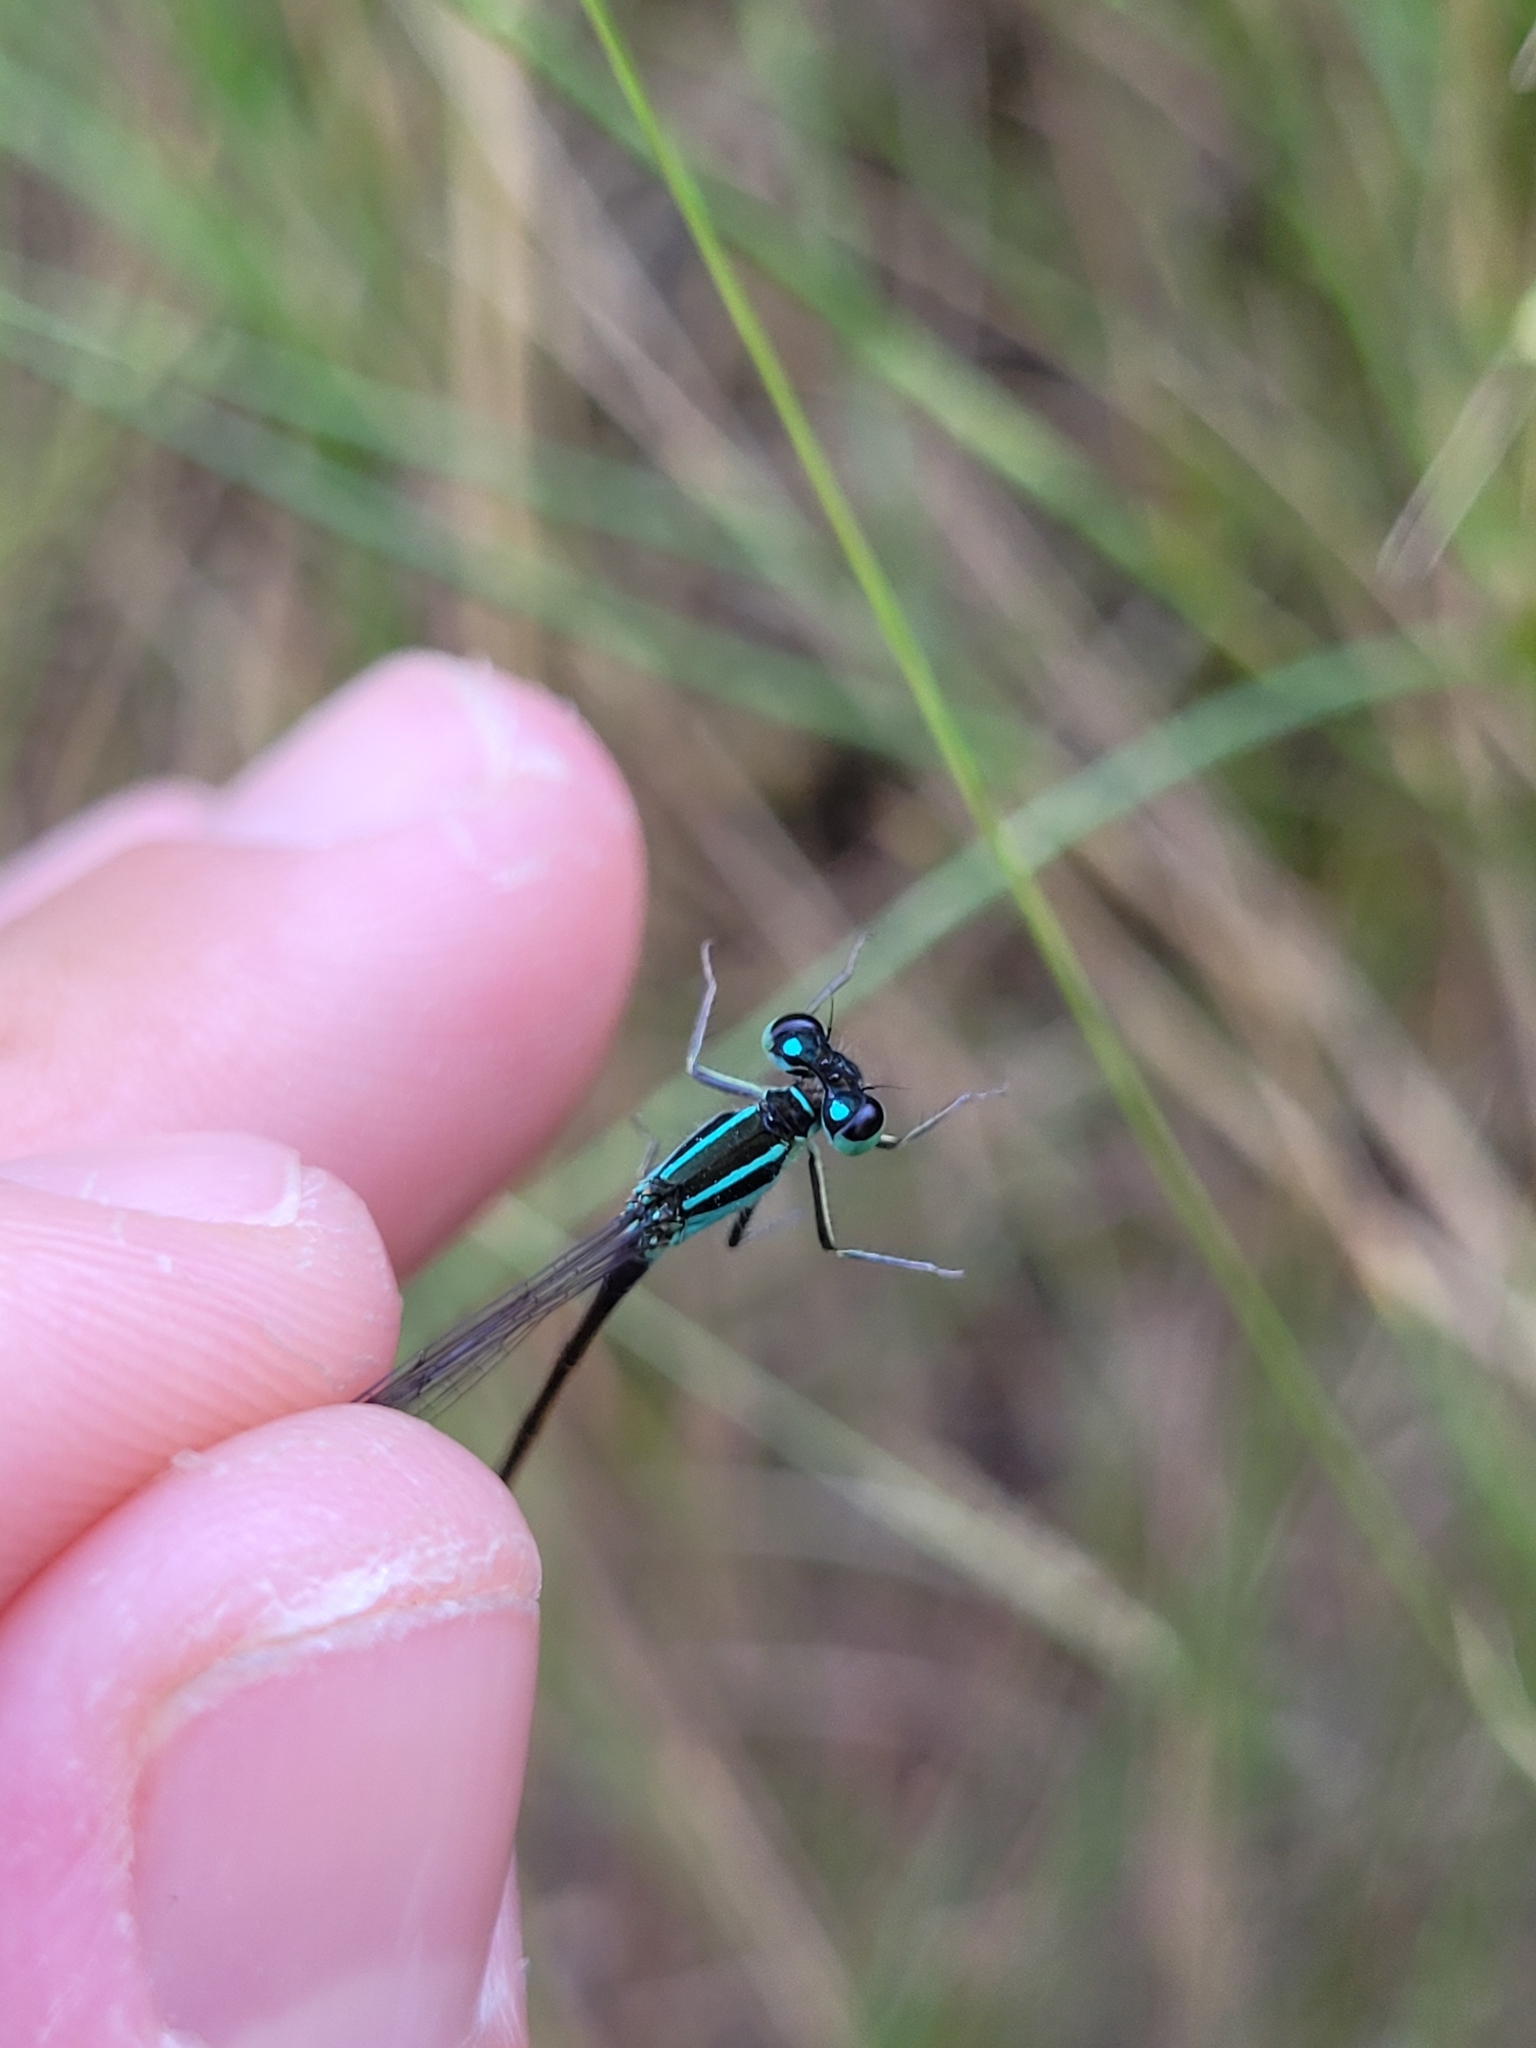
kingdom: Animalia
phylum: Arthropoda
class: Insecta
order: Odonata
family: Coenagrionidae
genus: Ischnura
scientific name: Ischnura elegans
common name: Blue-tailed damselfly
